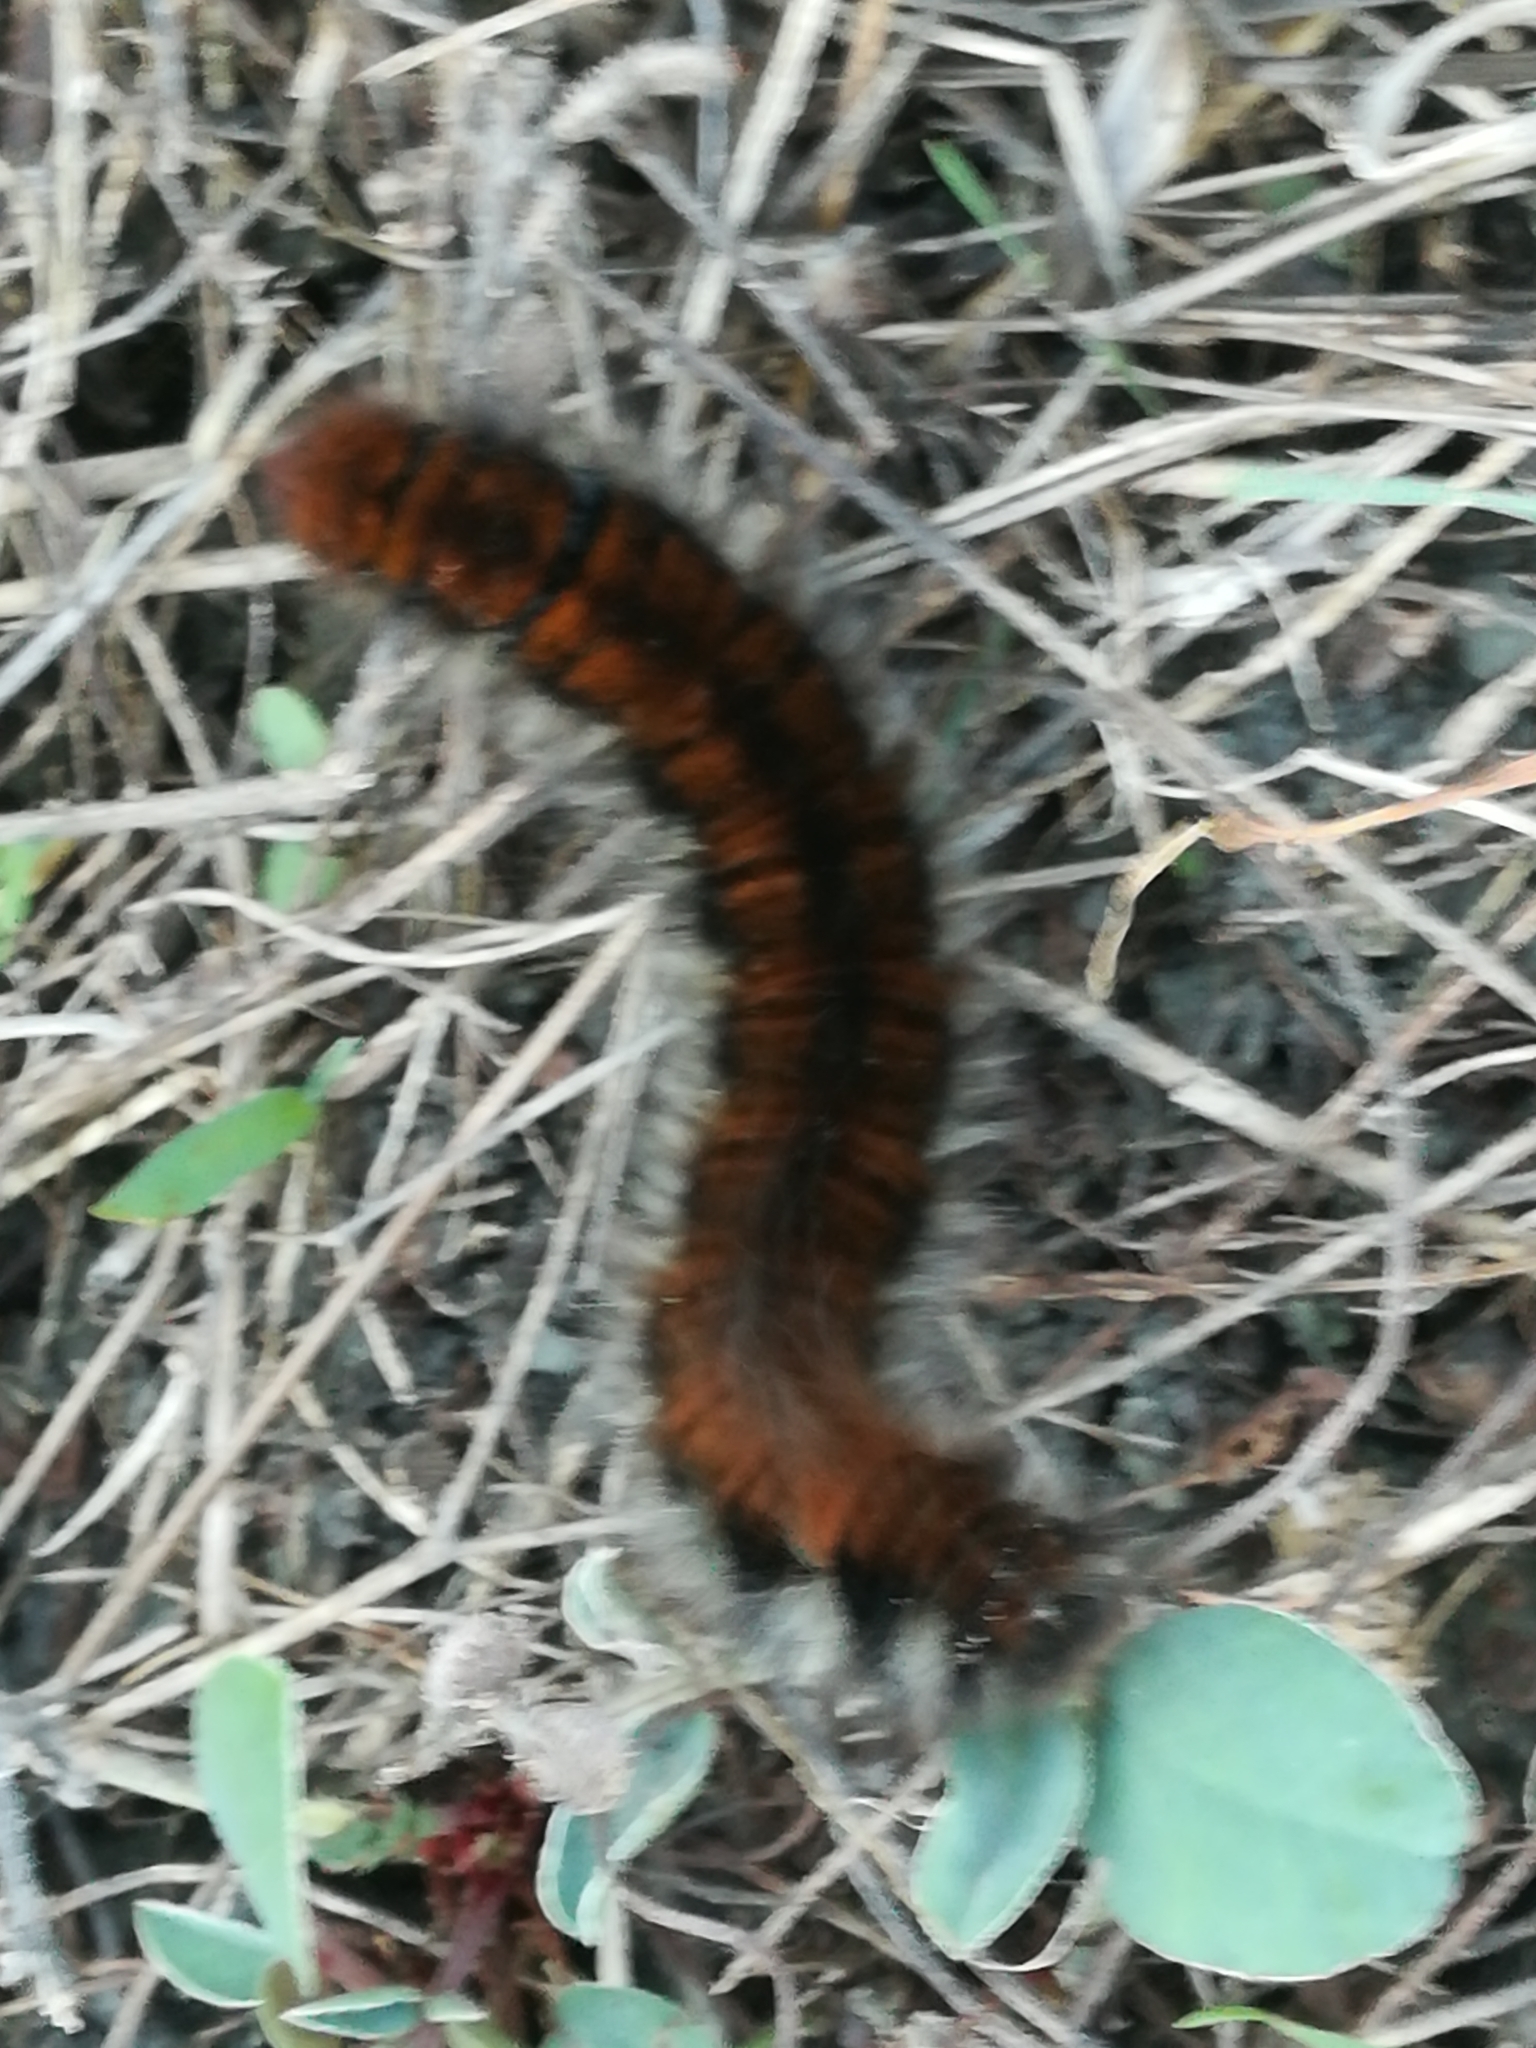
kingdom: Animalia
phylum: Arthropoda
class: Insecta
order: Lepidoptera
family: Lasiocampidae
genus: Macrothylacia
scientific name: Macrothylacia rubi
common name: Fox moth
